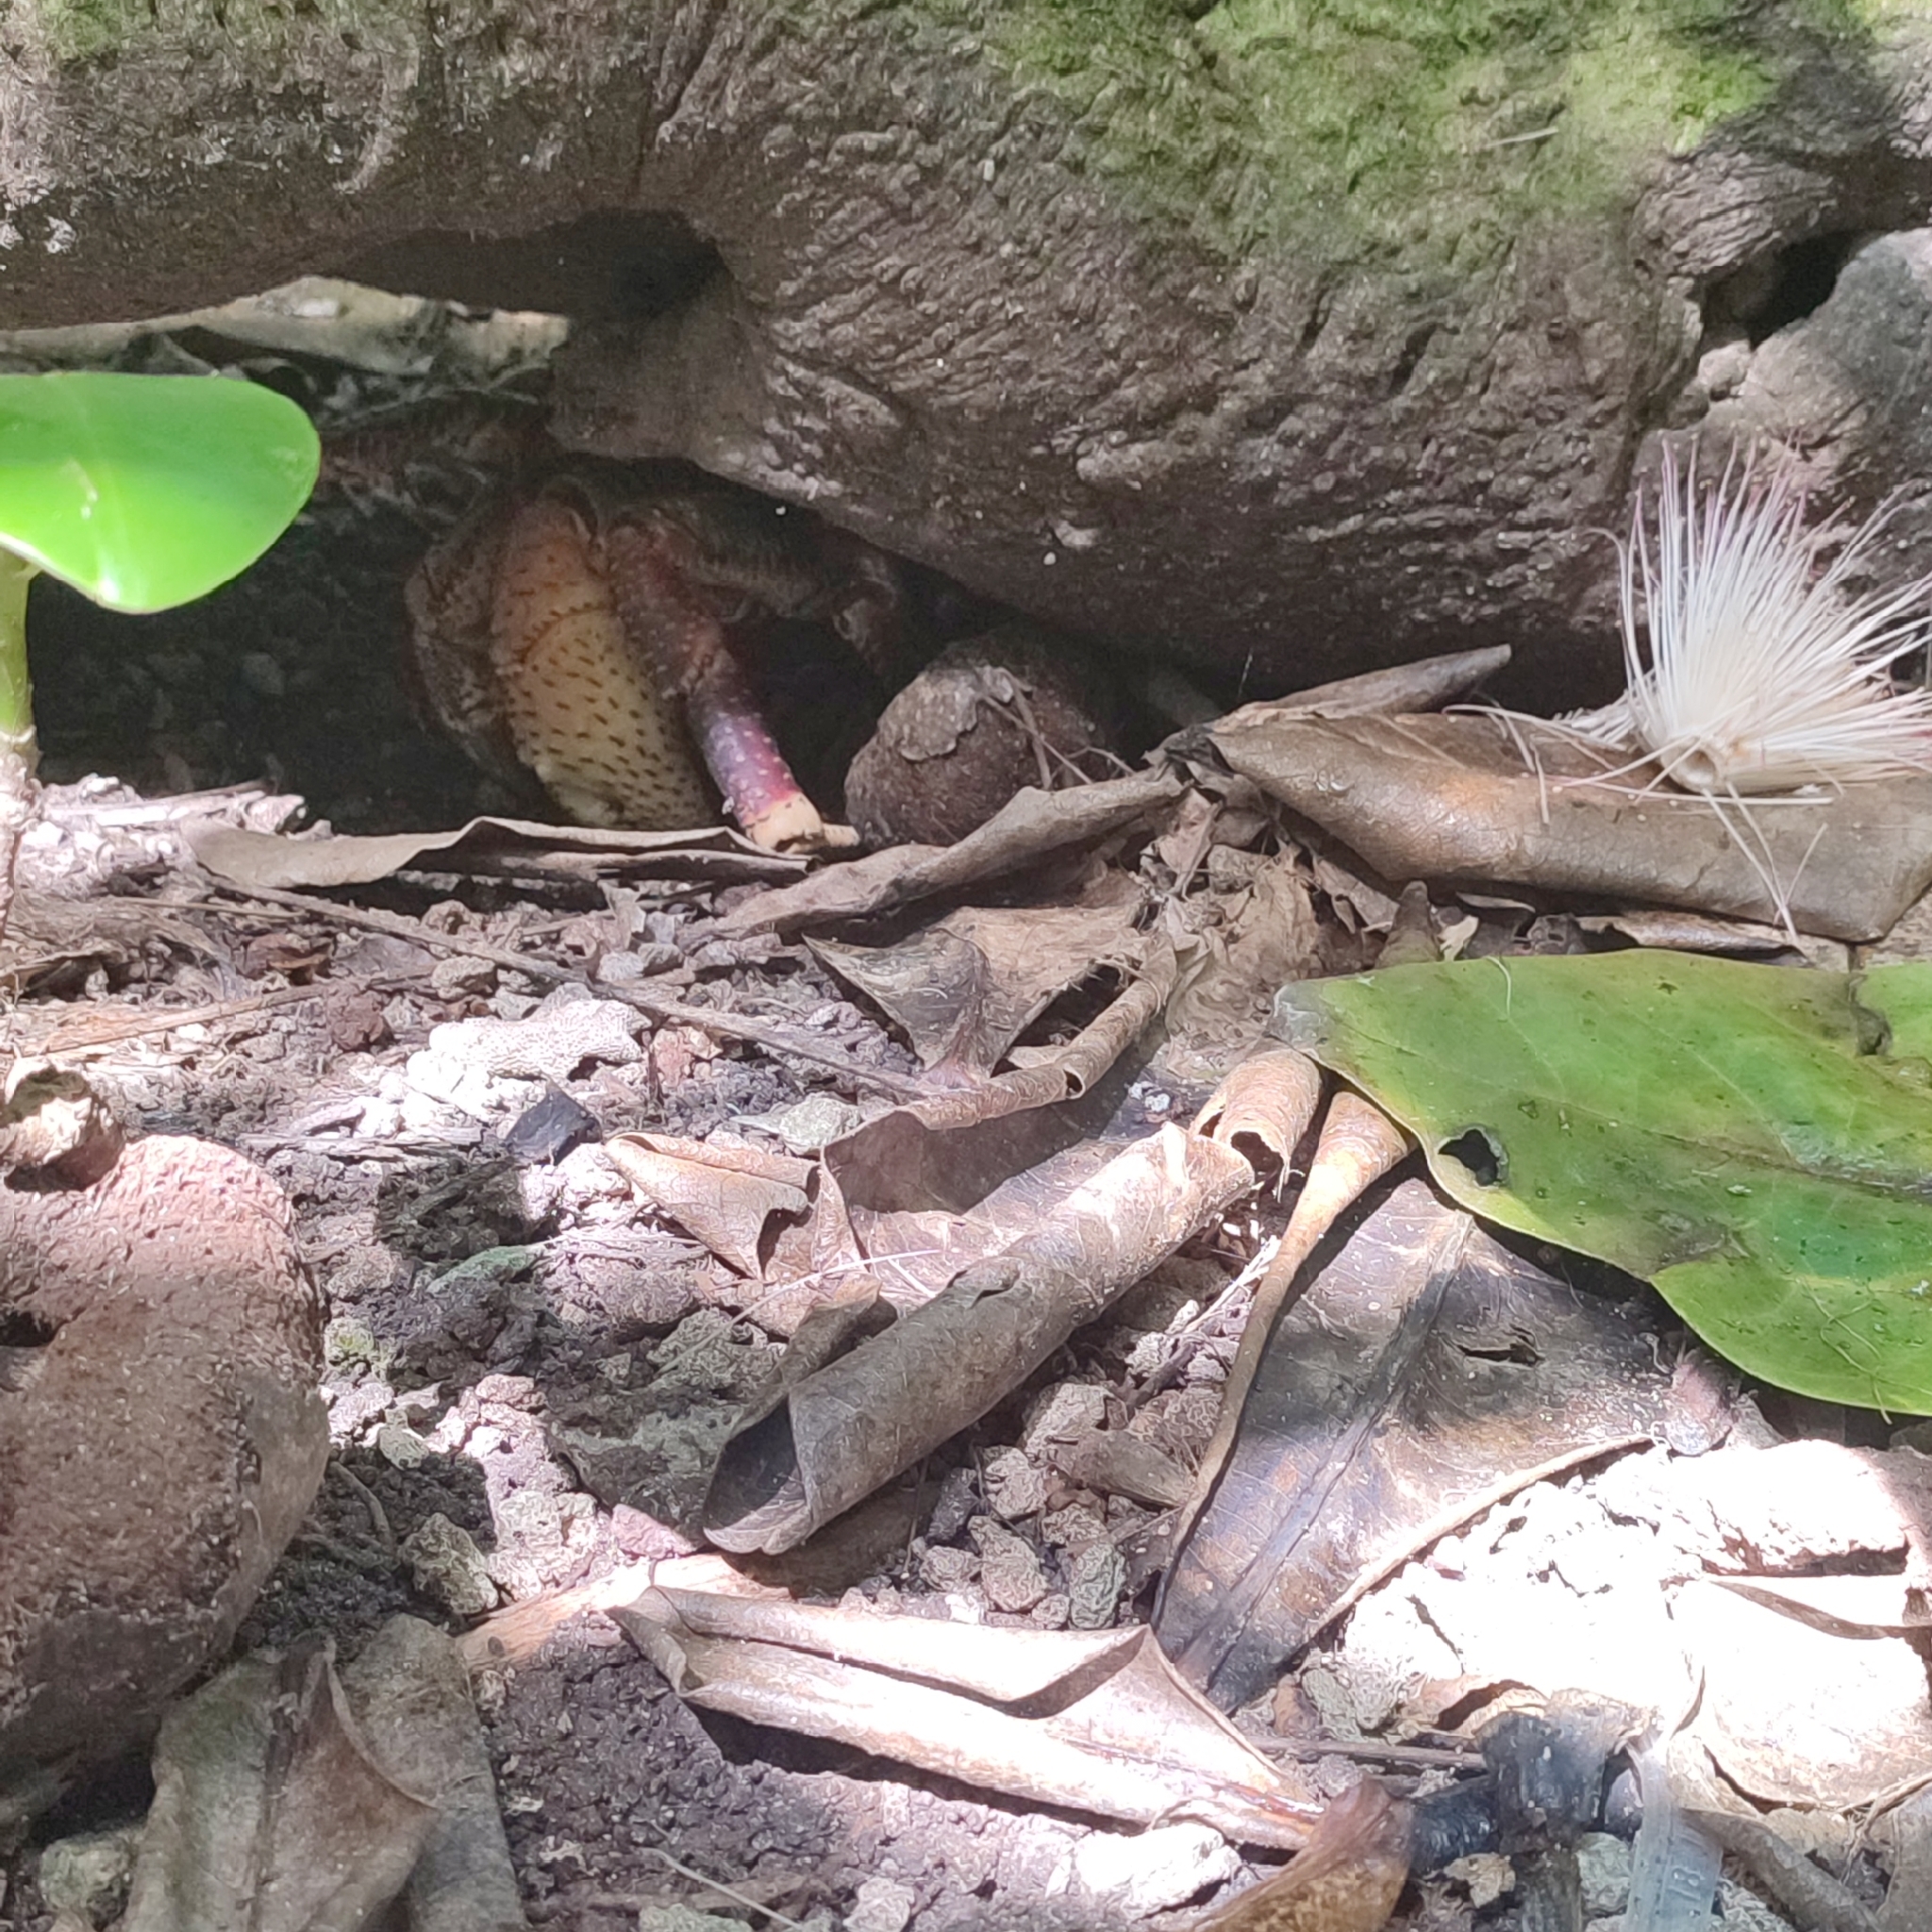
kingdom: Animalia
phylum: Arthropoda
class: Malacostraca
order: Decapoda
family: Coenobitidae
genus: Birgus
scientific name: Birgus latro
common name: Coconut crab
